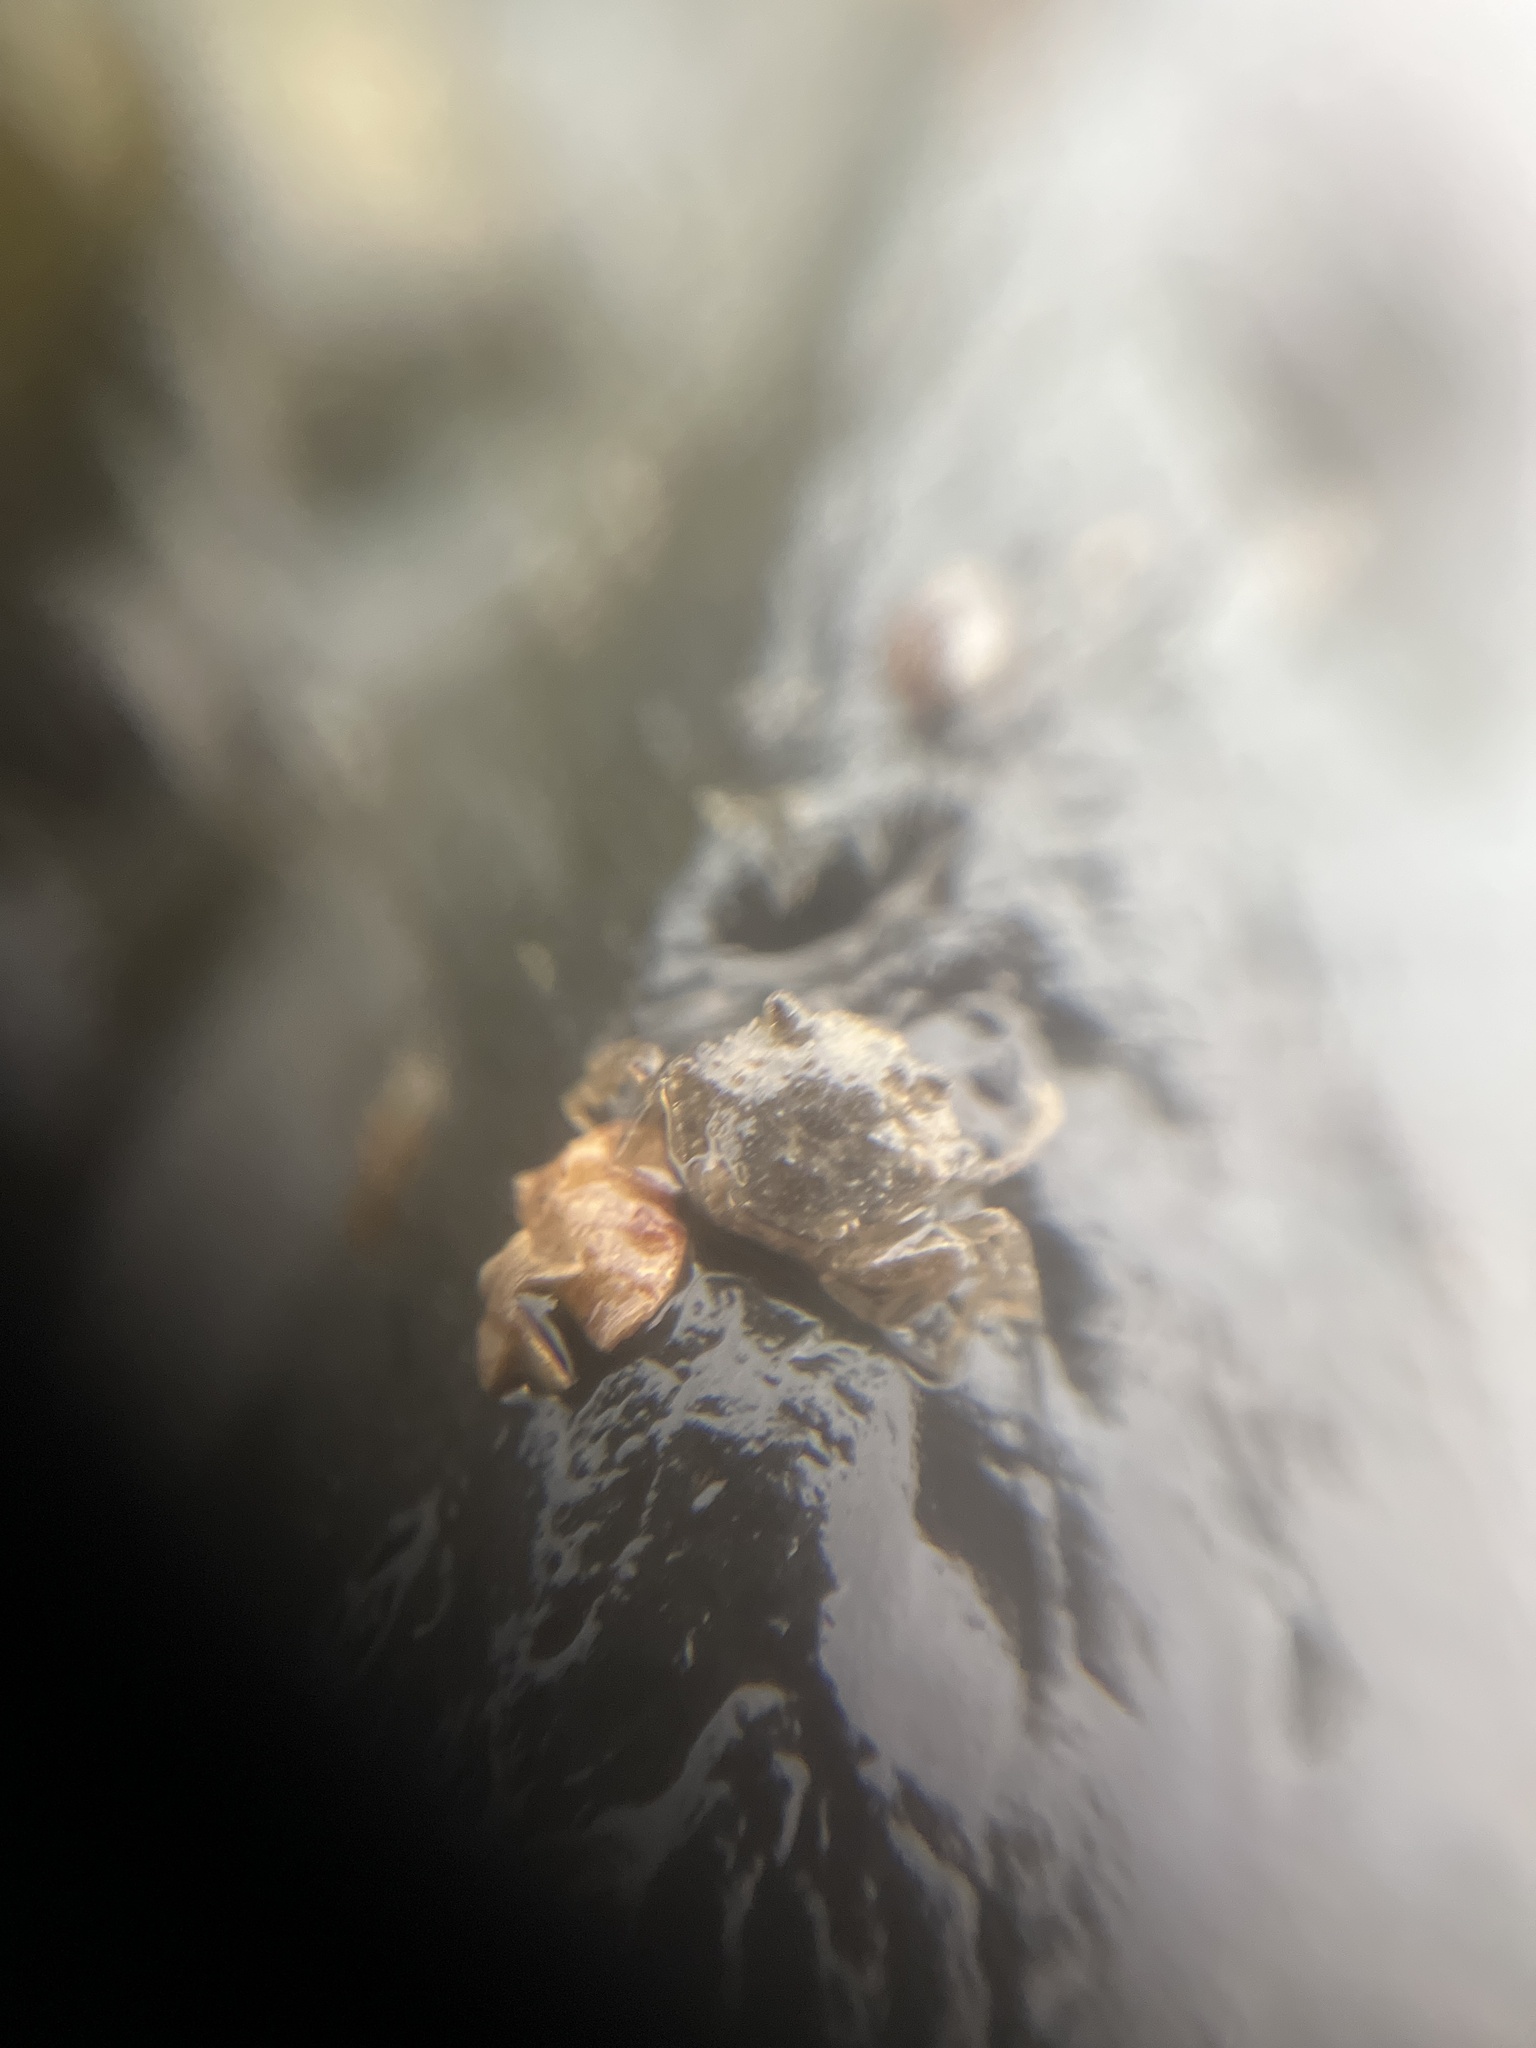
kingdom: Animalia
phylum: Arthropoda
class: Malacostraca
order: Decapoda
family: Carcinidae
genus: Carcinus
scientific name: Carcinus maenas
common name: European green crab
